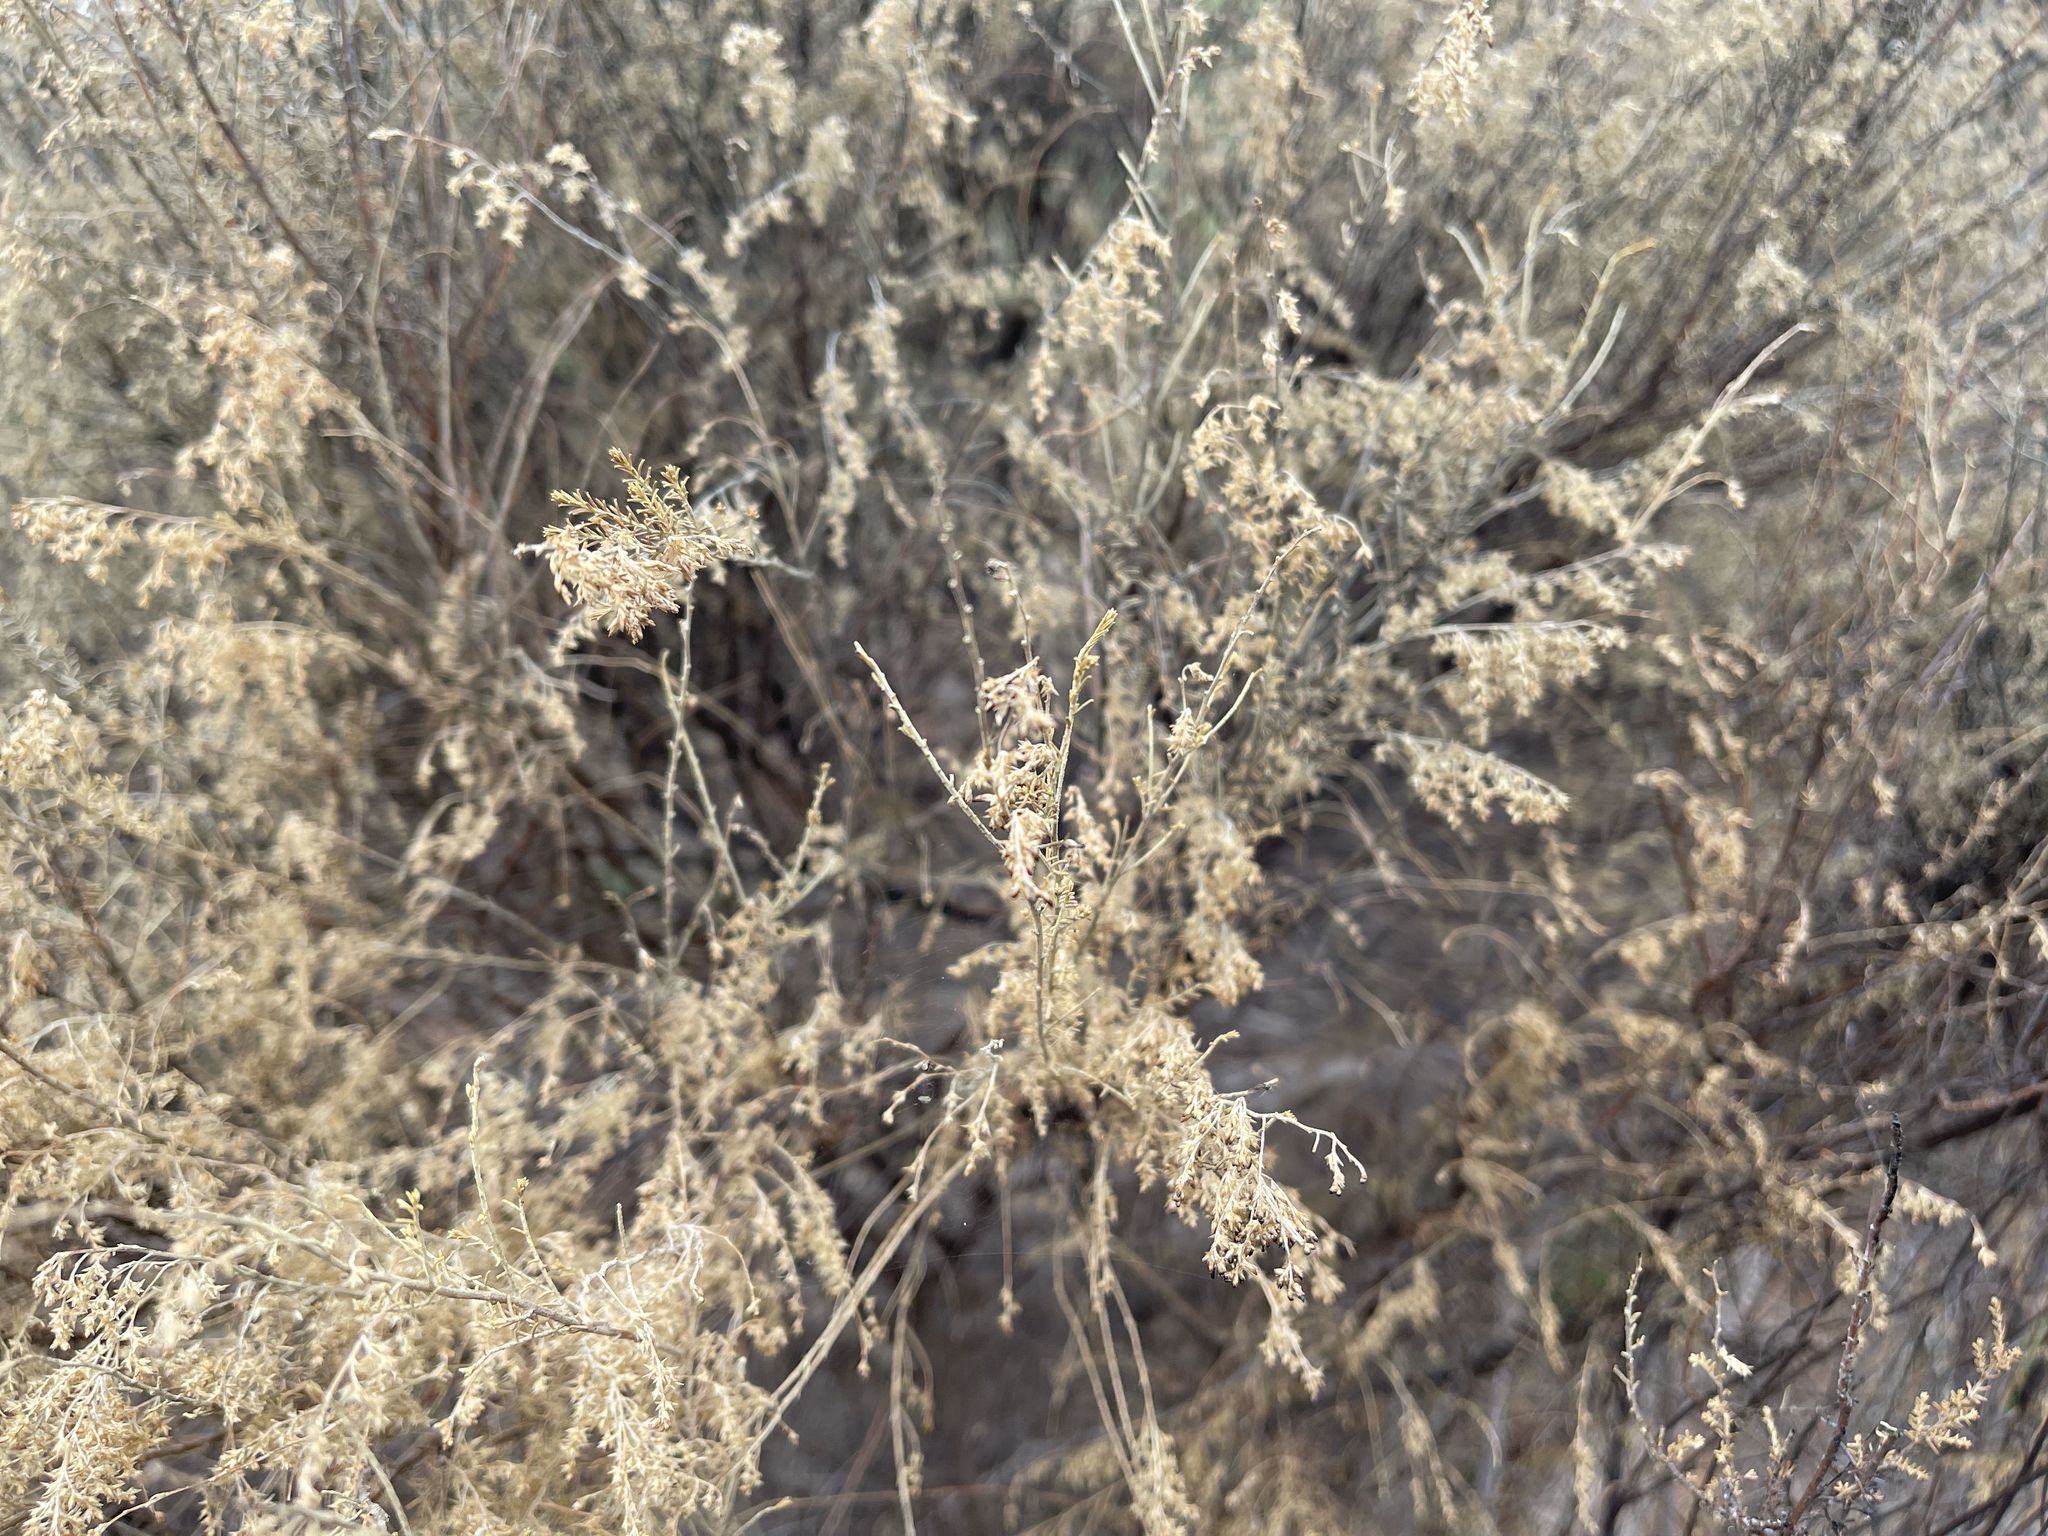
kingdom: Plantae
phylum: Tracheophyta
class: Magnoliopsida
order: Asterales
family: Asteraceae
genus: Cassinia
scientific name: Cassinia sifton
